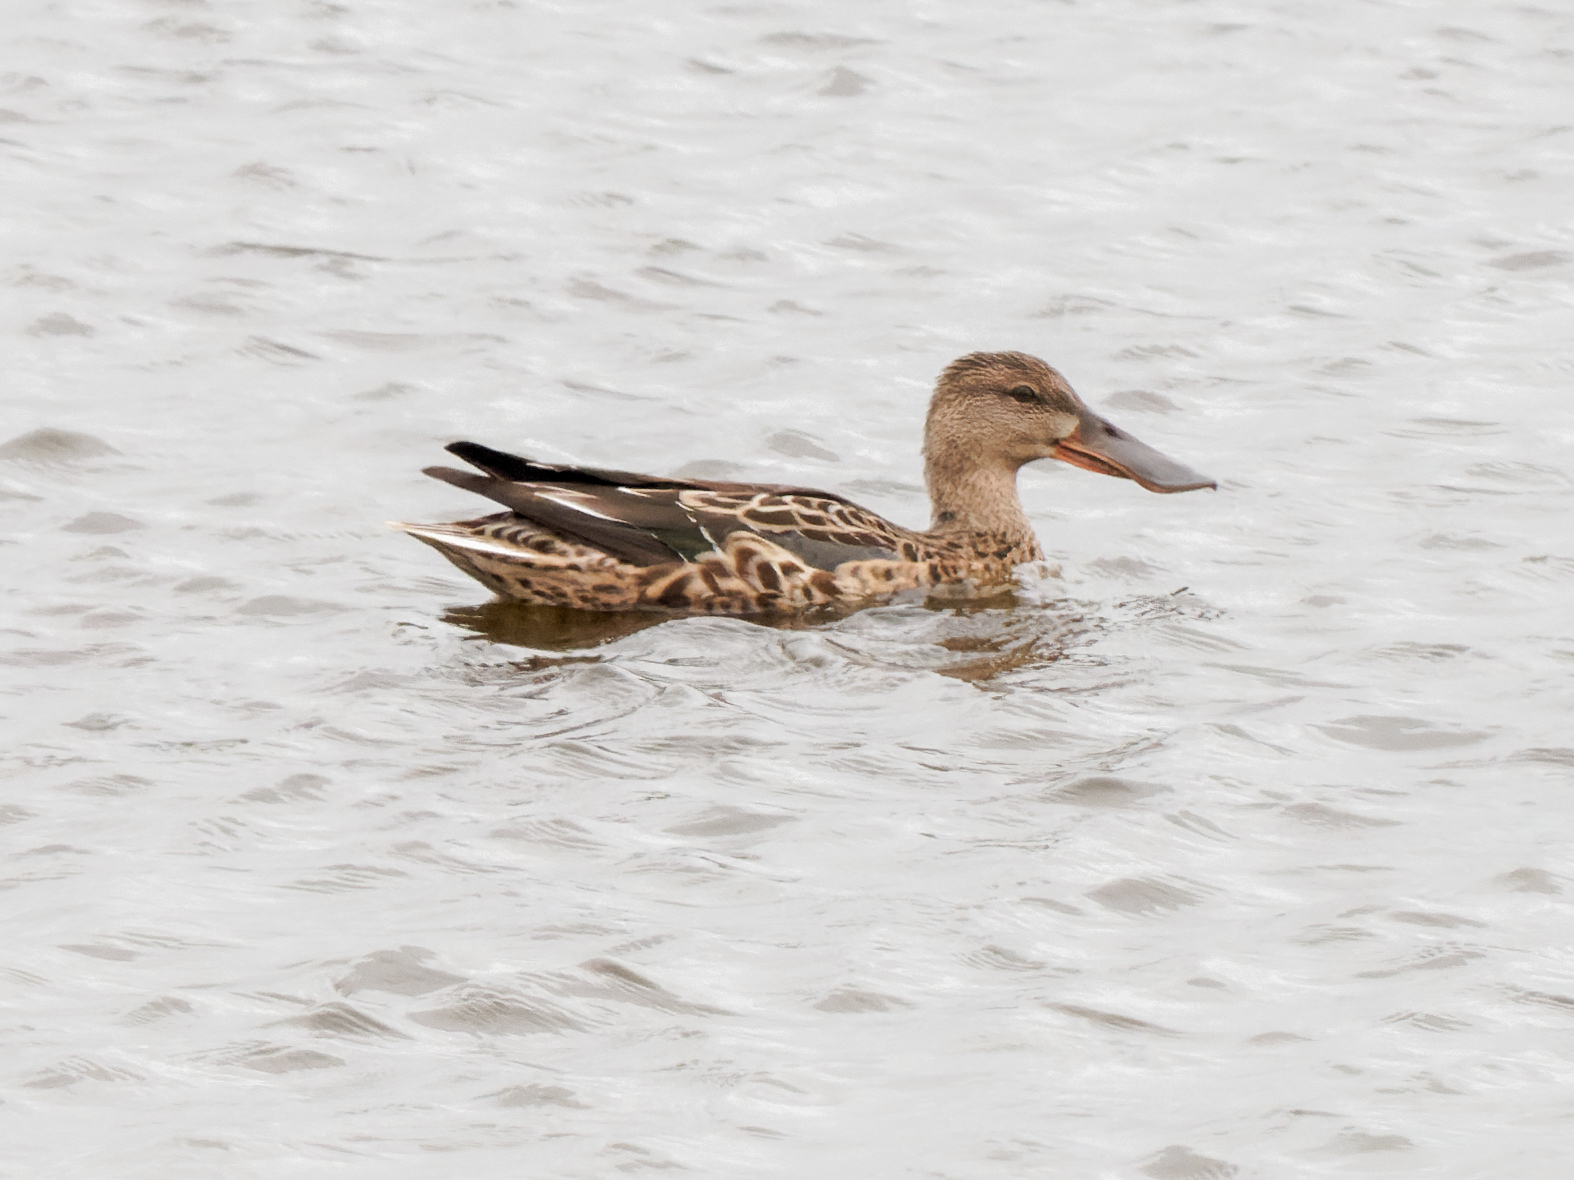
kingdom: Animalia
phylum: Chordata
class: Aves
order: Anseriformes
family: Anatidae
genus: Spatula
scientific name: Spatula clypeata
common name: Northern shoveler
